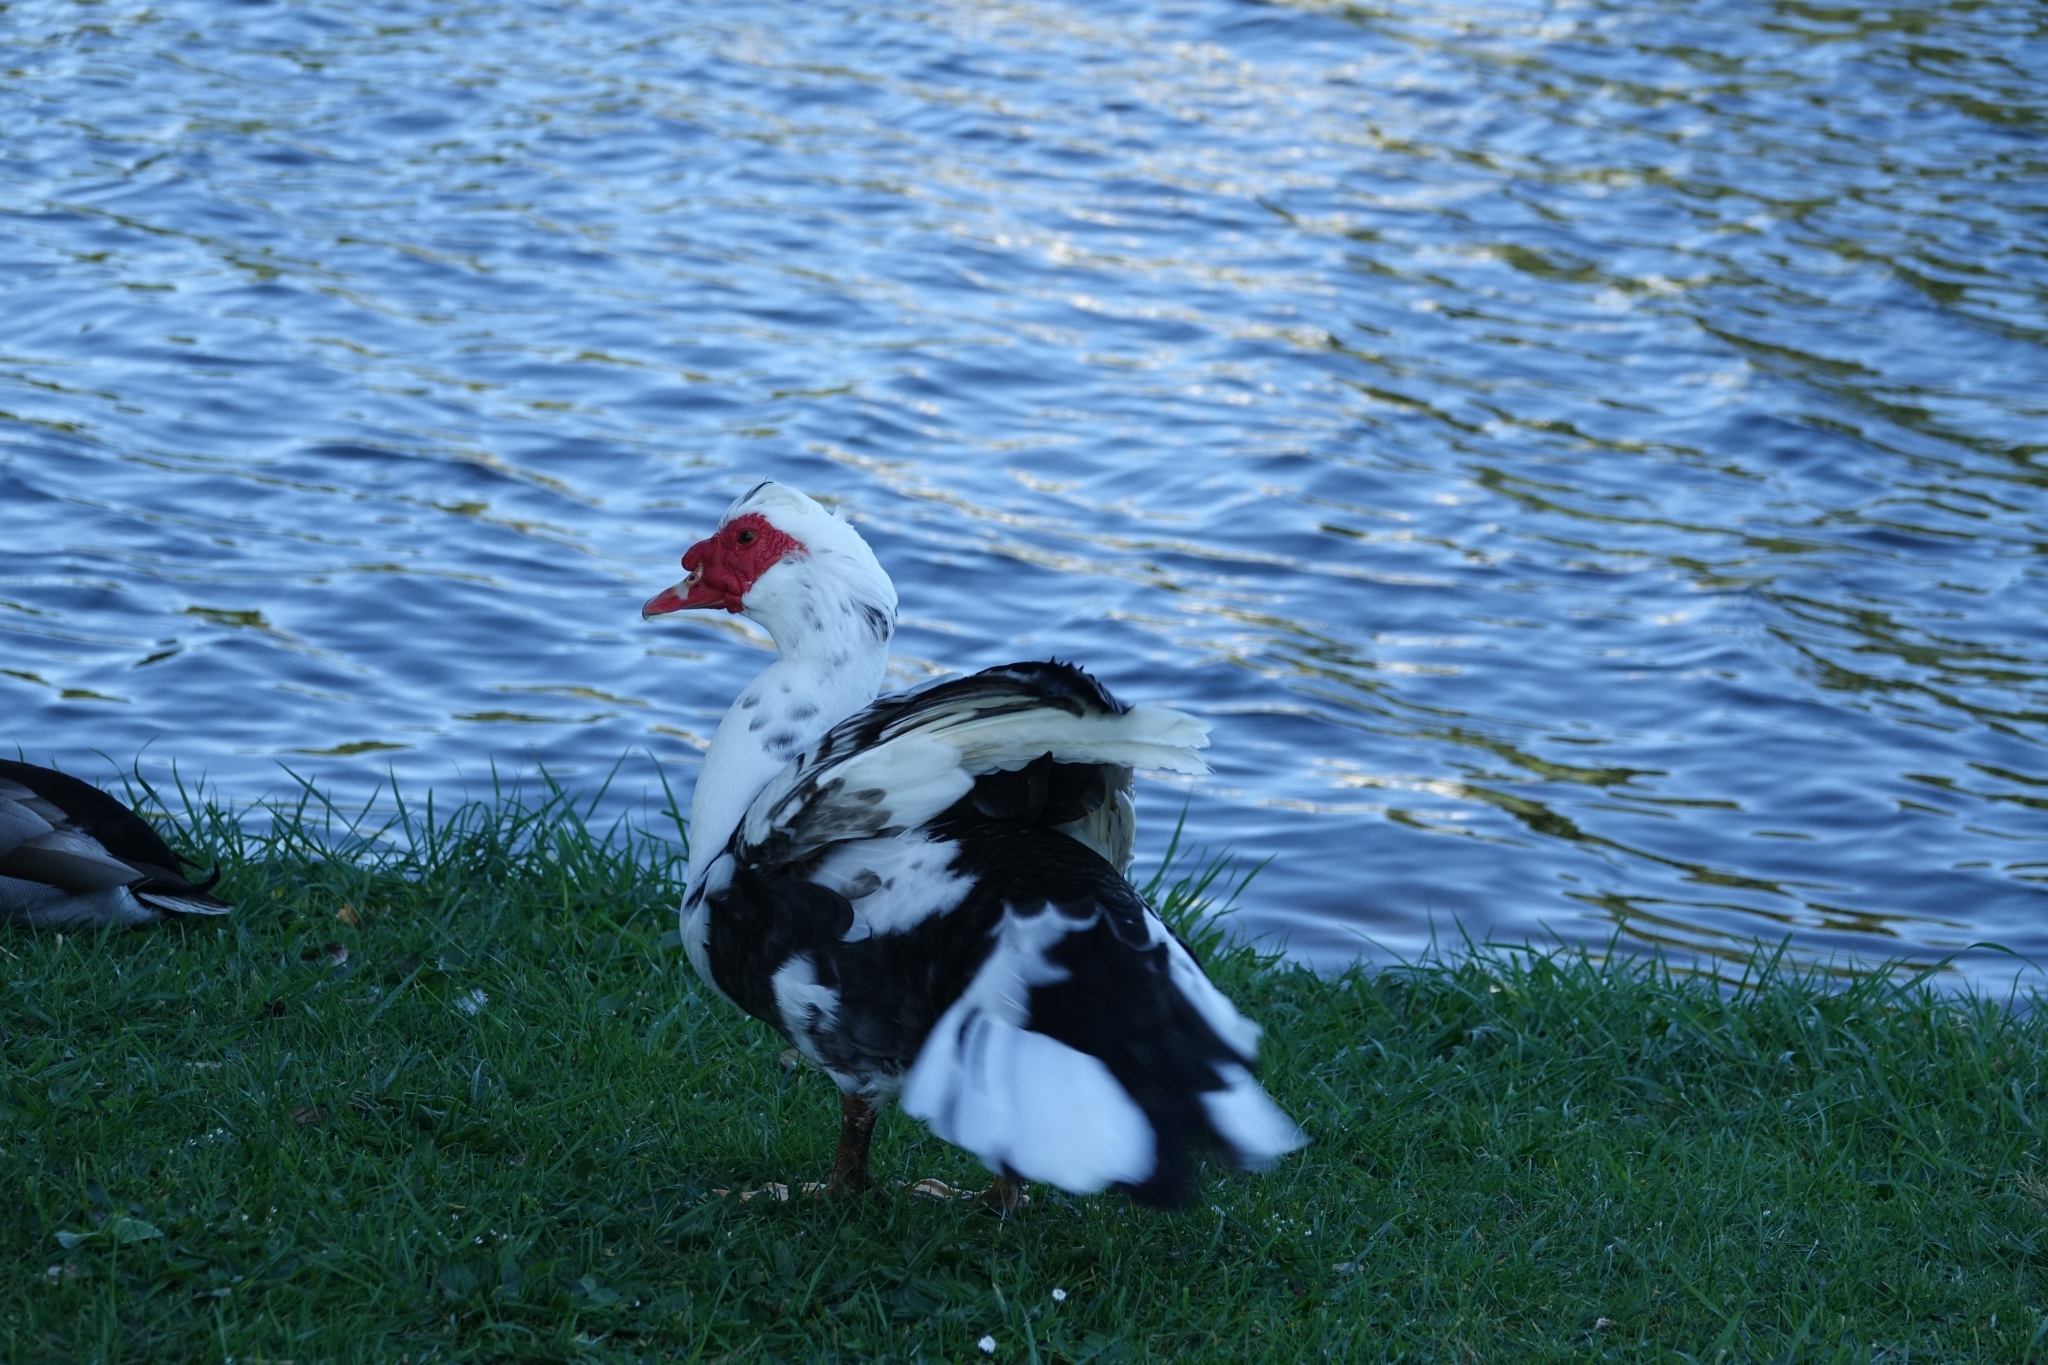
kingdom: Animalia
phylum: Chordata
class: Aves
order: Anseriformes
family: Anatidae
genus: Cairina
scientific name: Cairina moschata
